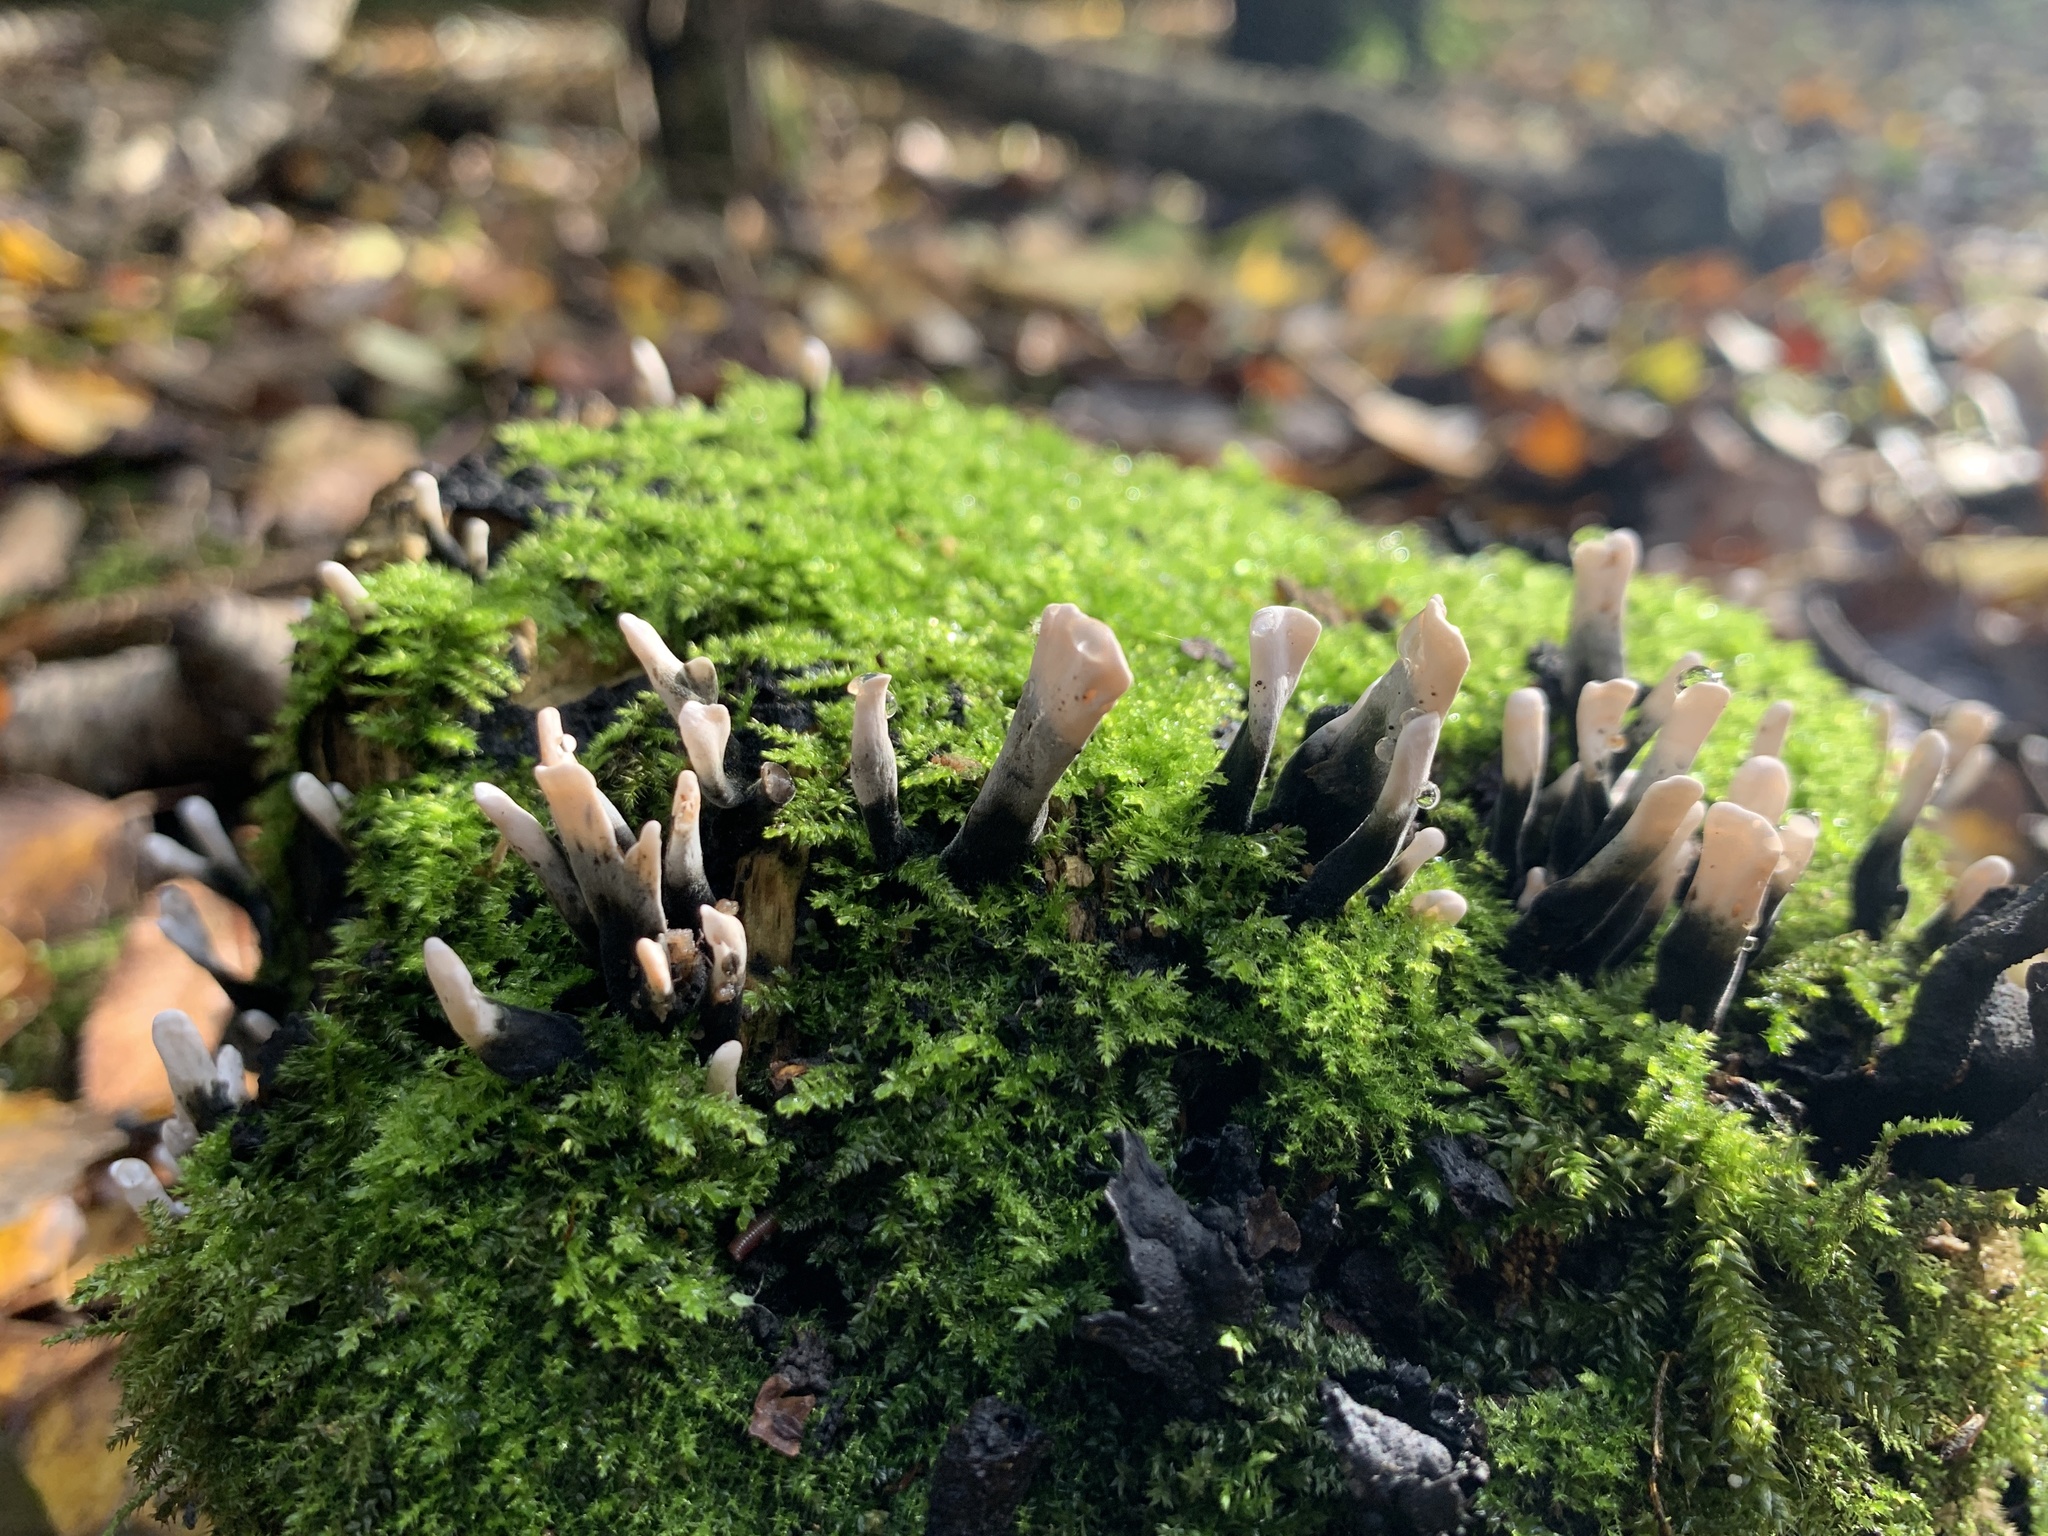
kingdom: Fungi
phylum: Ascomycota
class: Sordariomycetes
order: Xylariales
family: Xylariaceae
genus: Xylaria
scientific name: Xylaria hypoxylon
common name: Candle-snuff fungus
